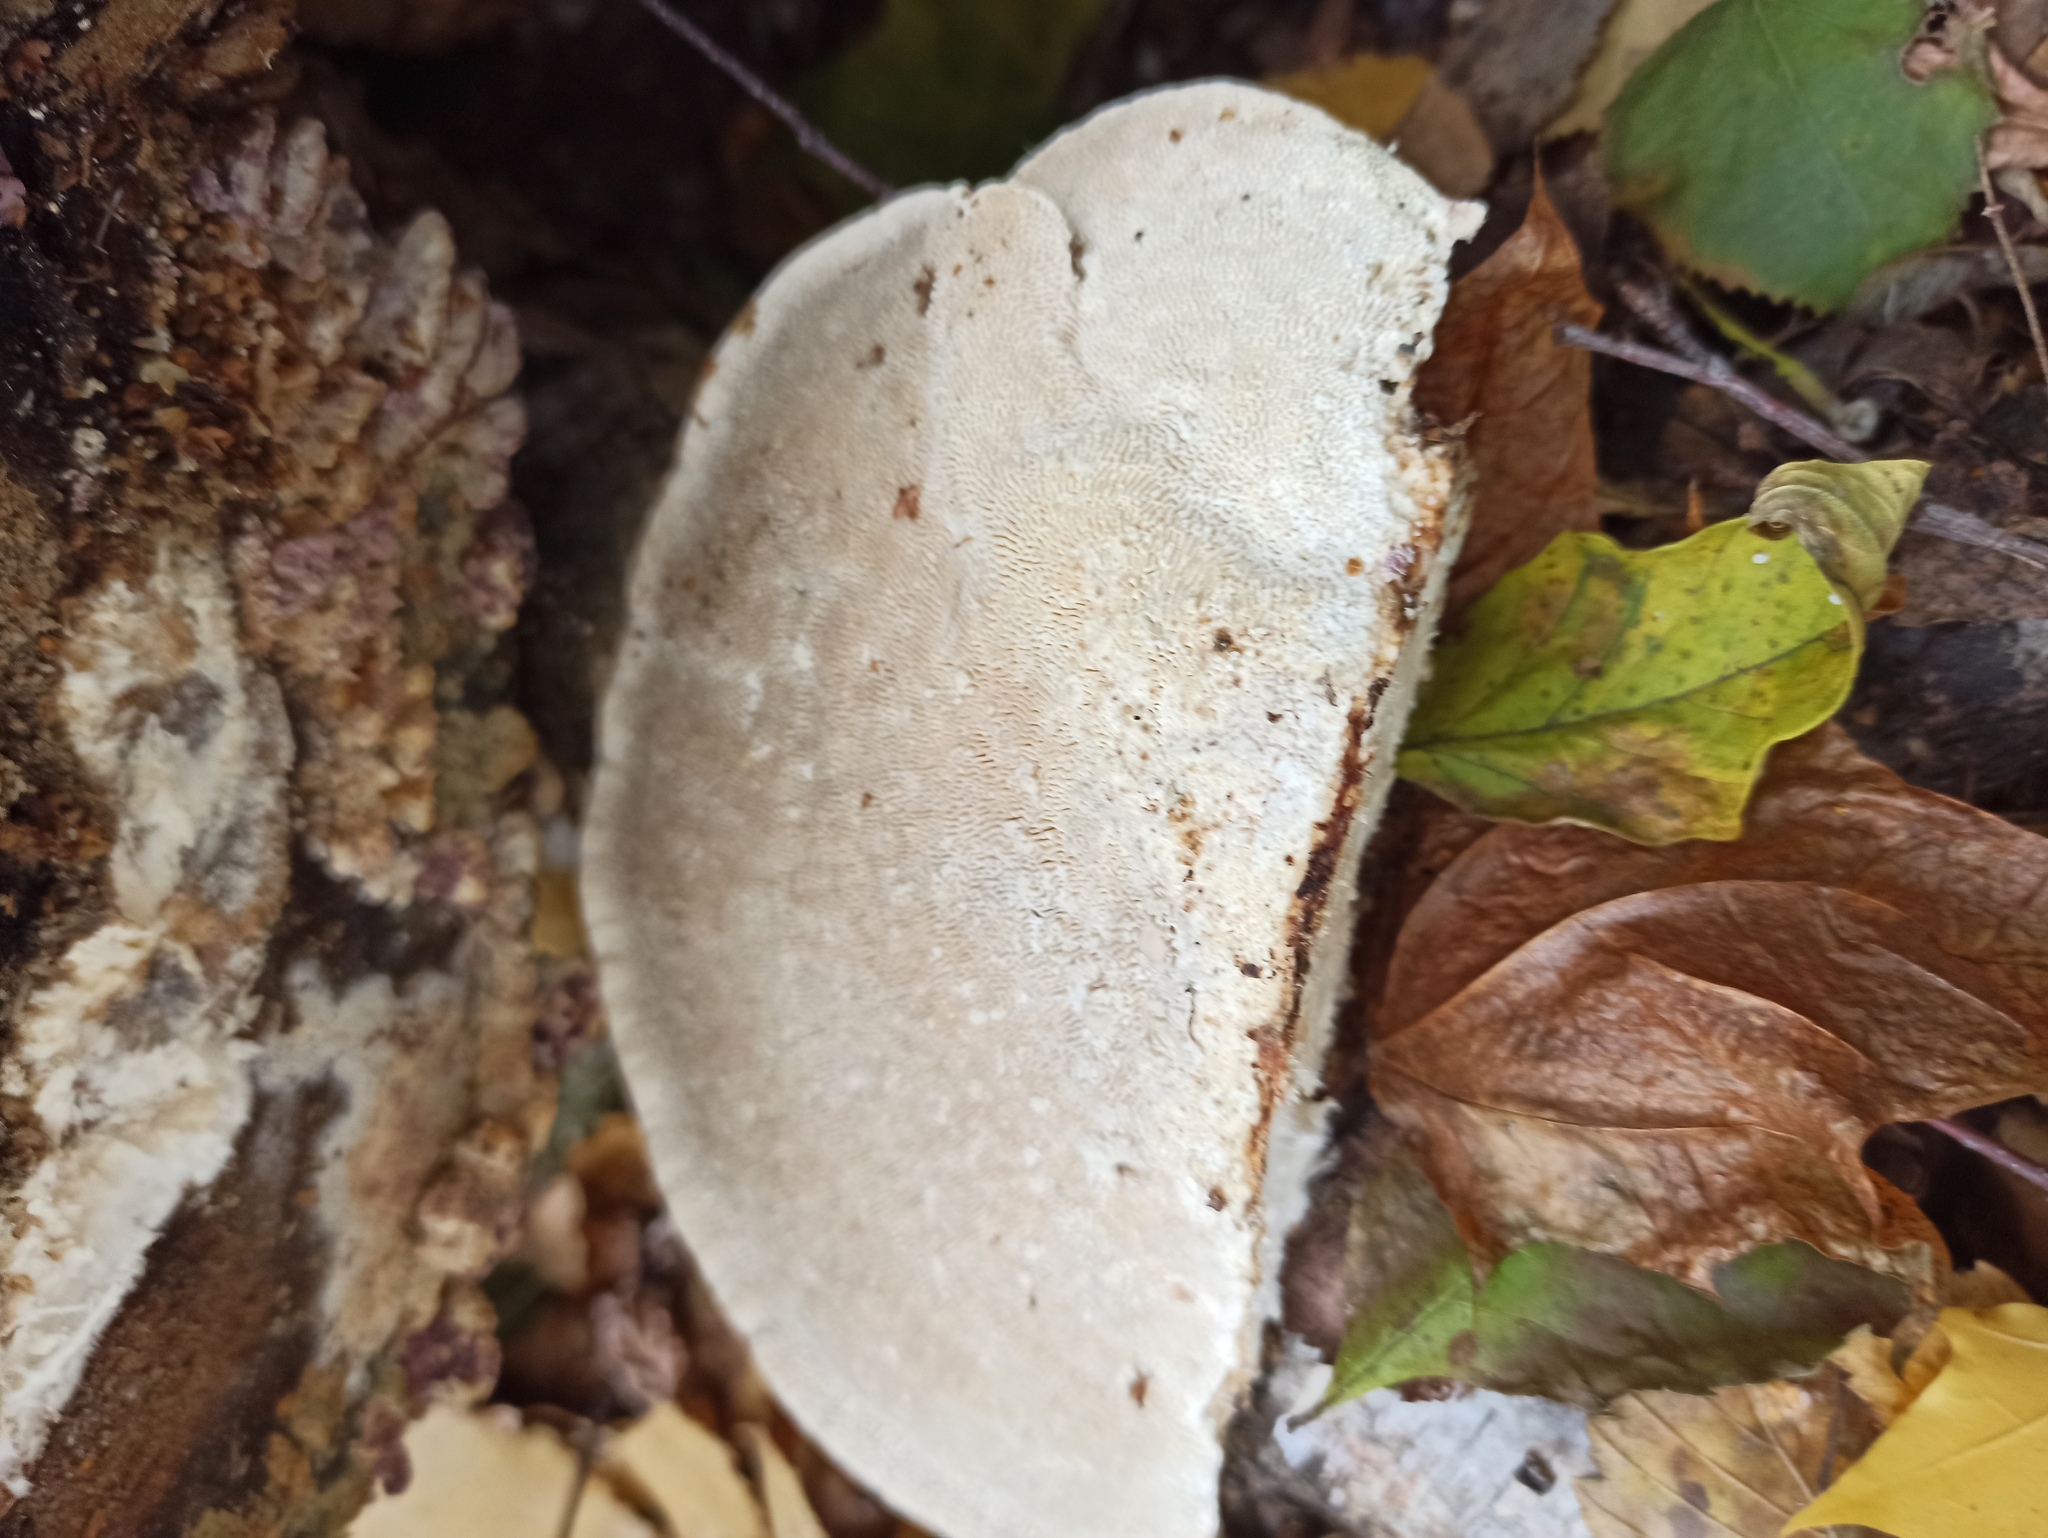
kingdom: Fungi
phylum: Basidiomycota
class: Agaricomycetes
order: Polyporales
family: Polyporaceae
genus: Trametes
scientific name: Trametes gibbosa
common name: Lumpy bracket
